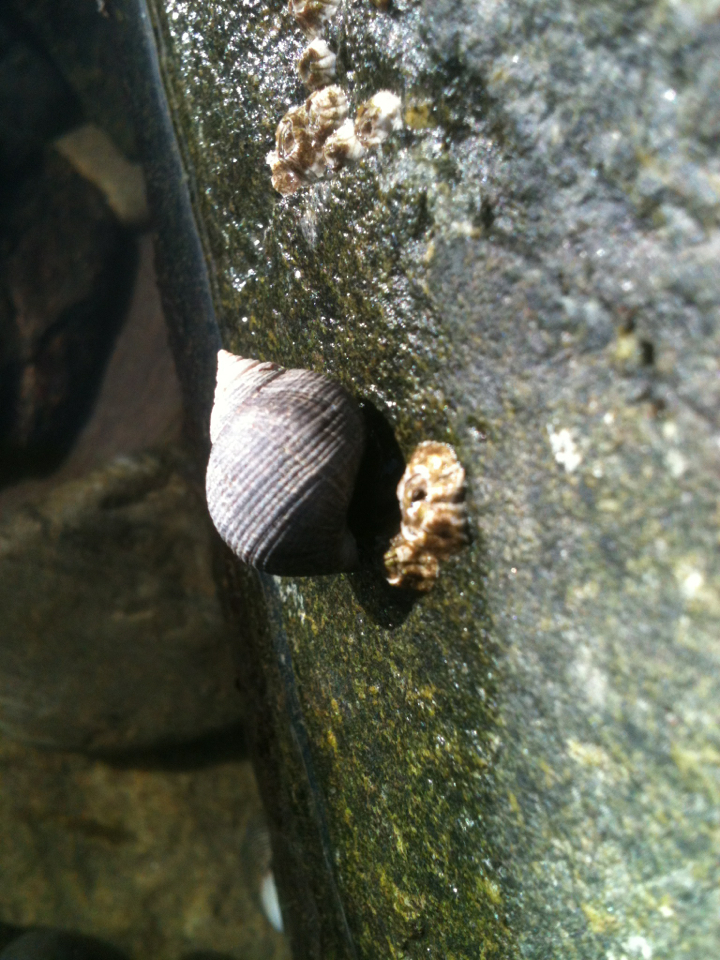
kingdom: Animalia
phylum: Mollusca
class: Gastropoda
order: Littorinimorpha
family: Littorinidae
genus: Littorina
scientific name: Littorina littorea
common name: Common periwinkle
